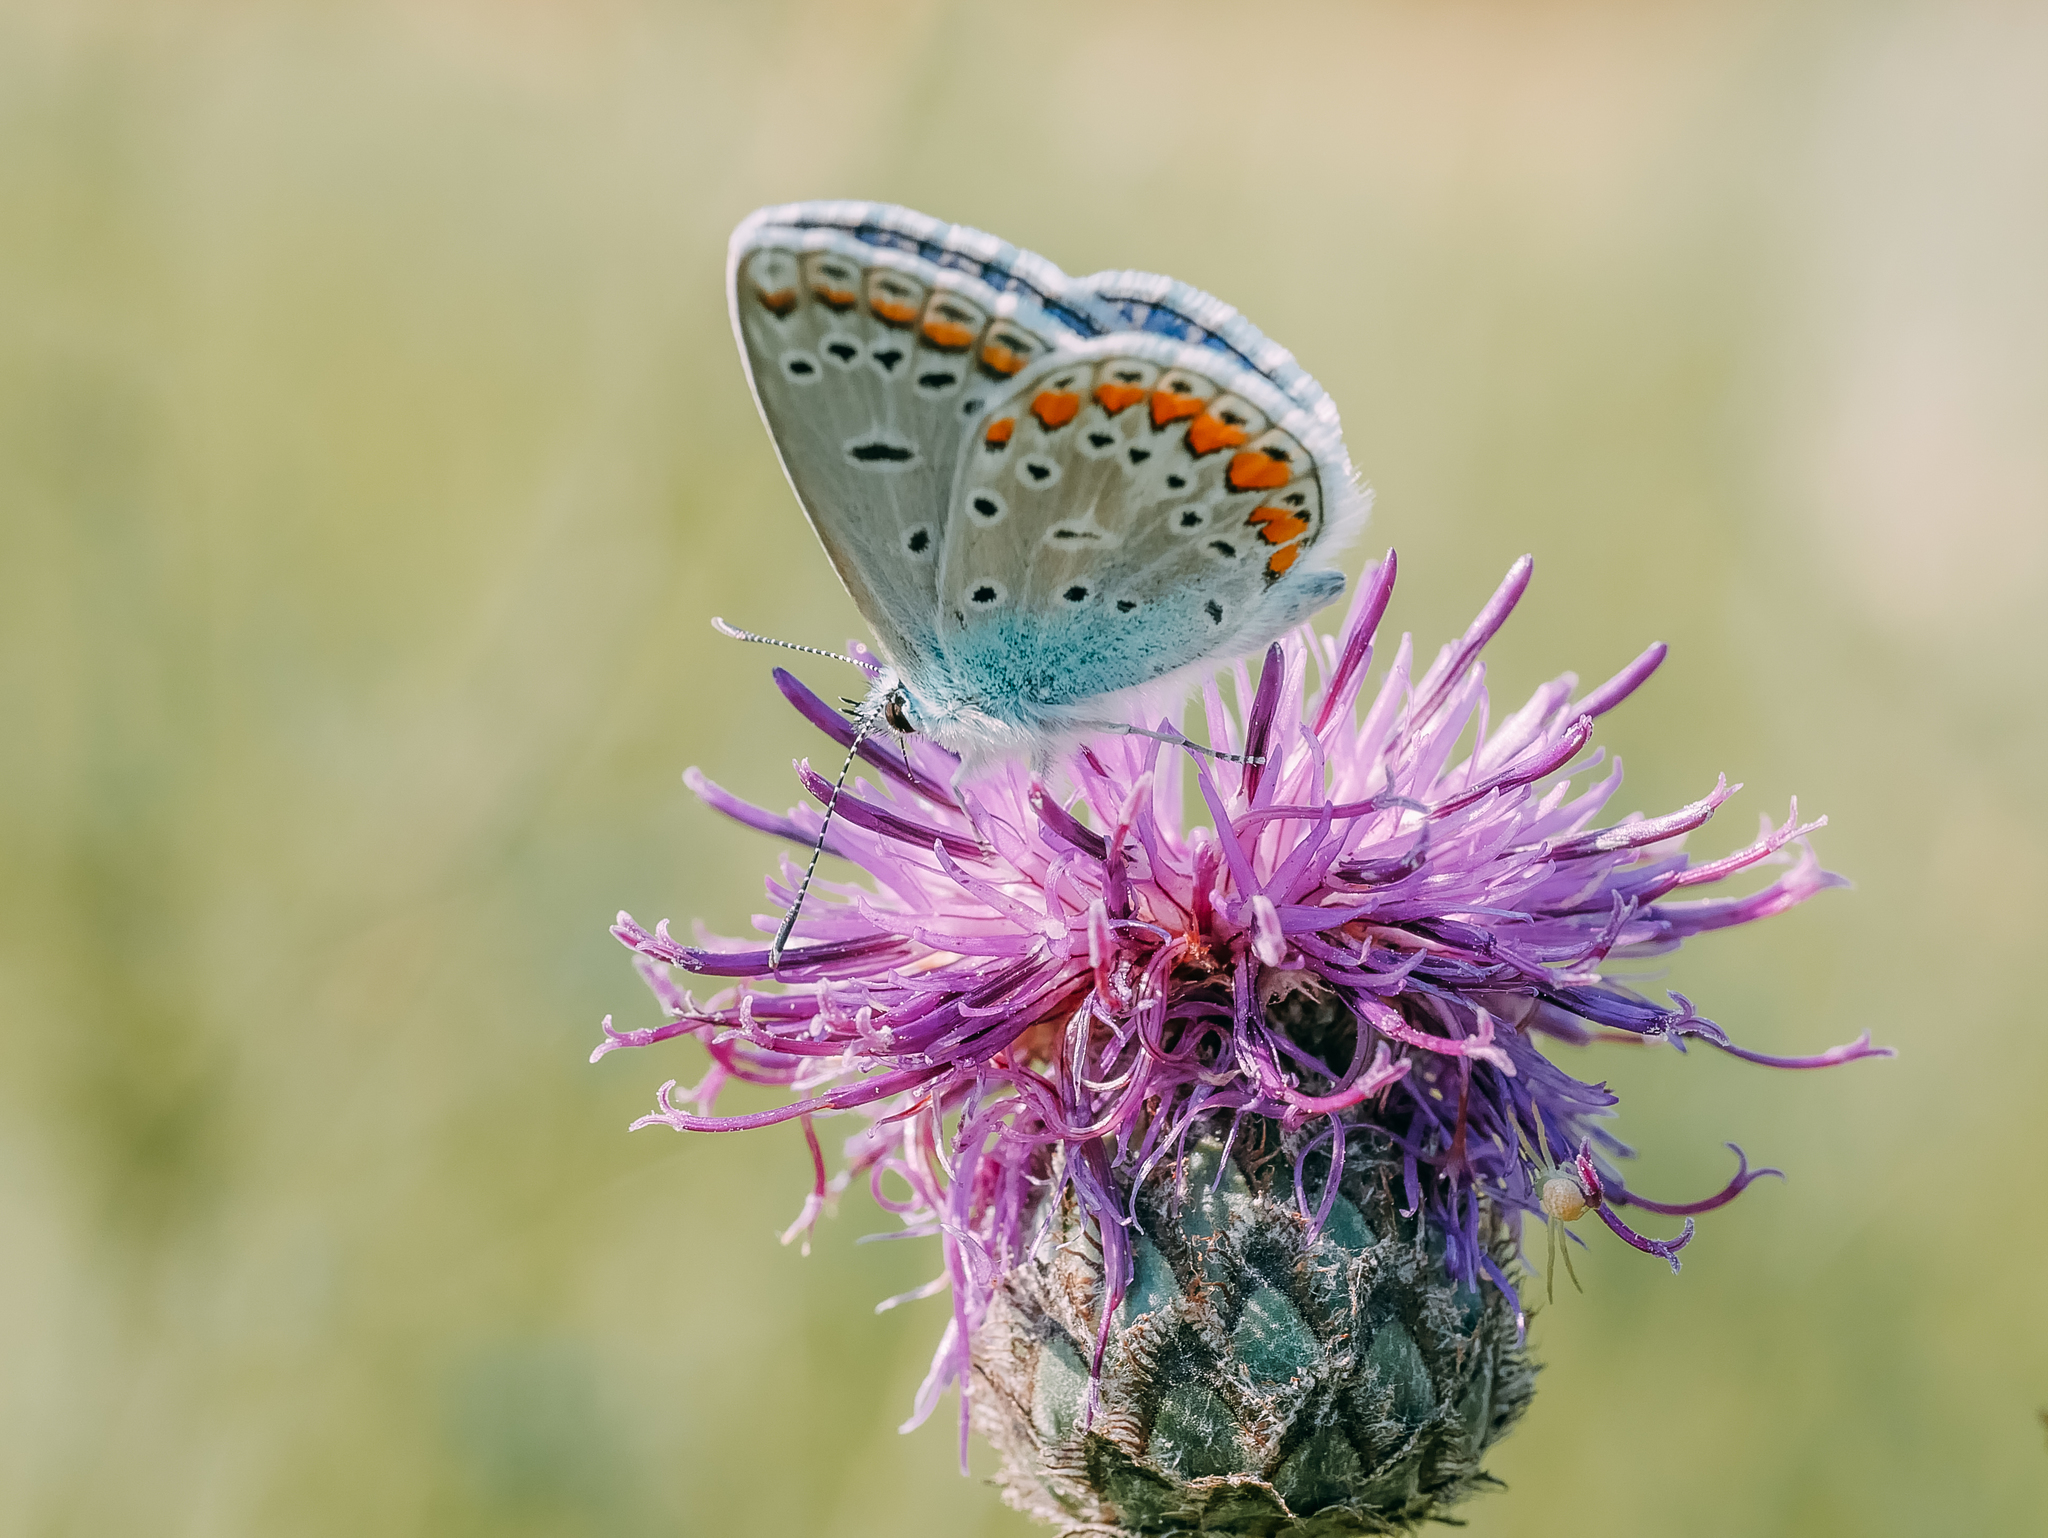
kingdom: Animalia
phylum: Arthropoda
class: Insecta
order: Lepidoptera
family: Lycaenidae
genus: Polyommatus
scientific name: Polyommatus icarus
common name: Common blue
